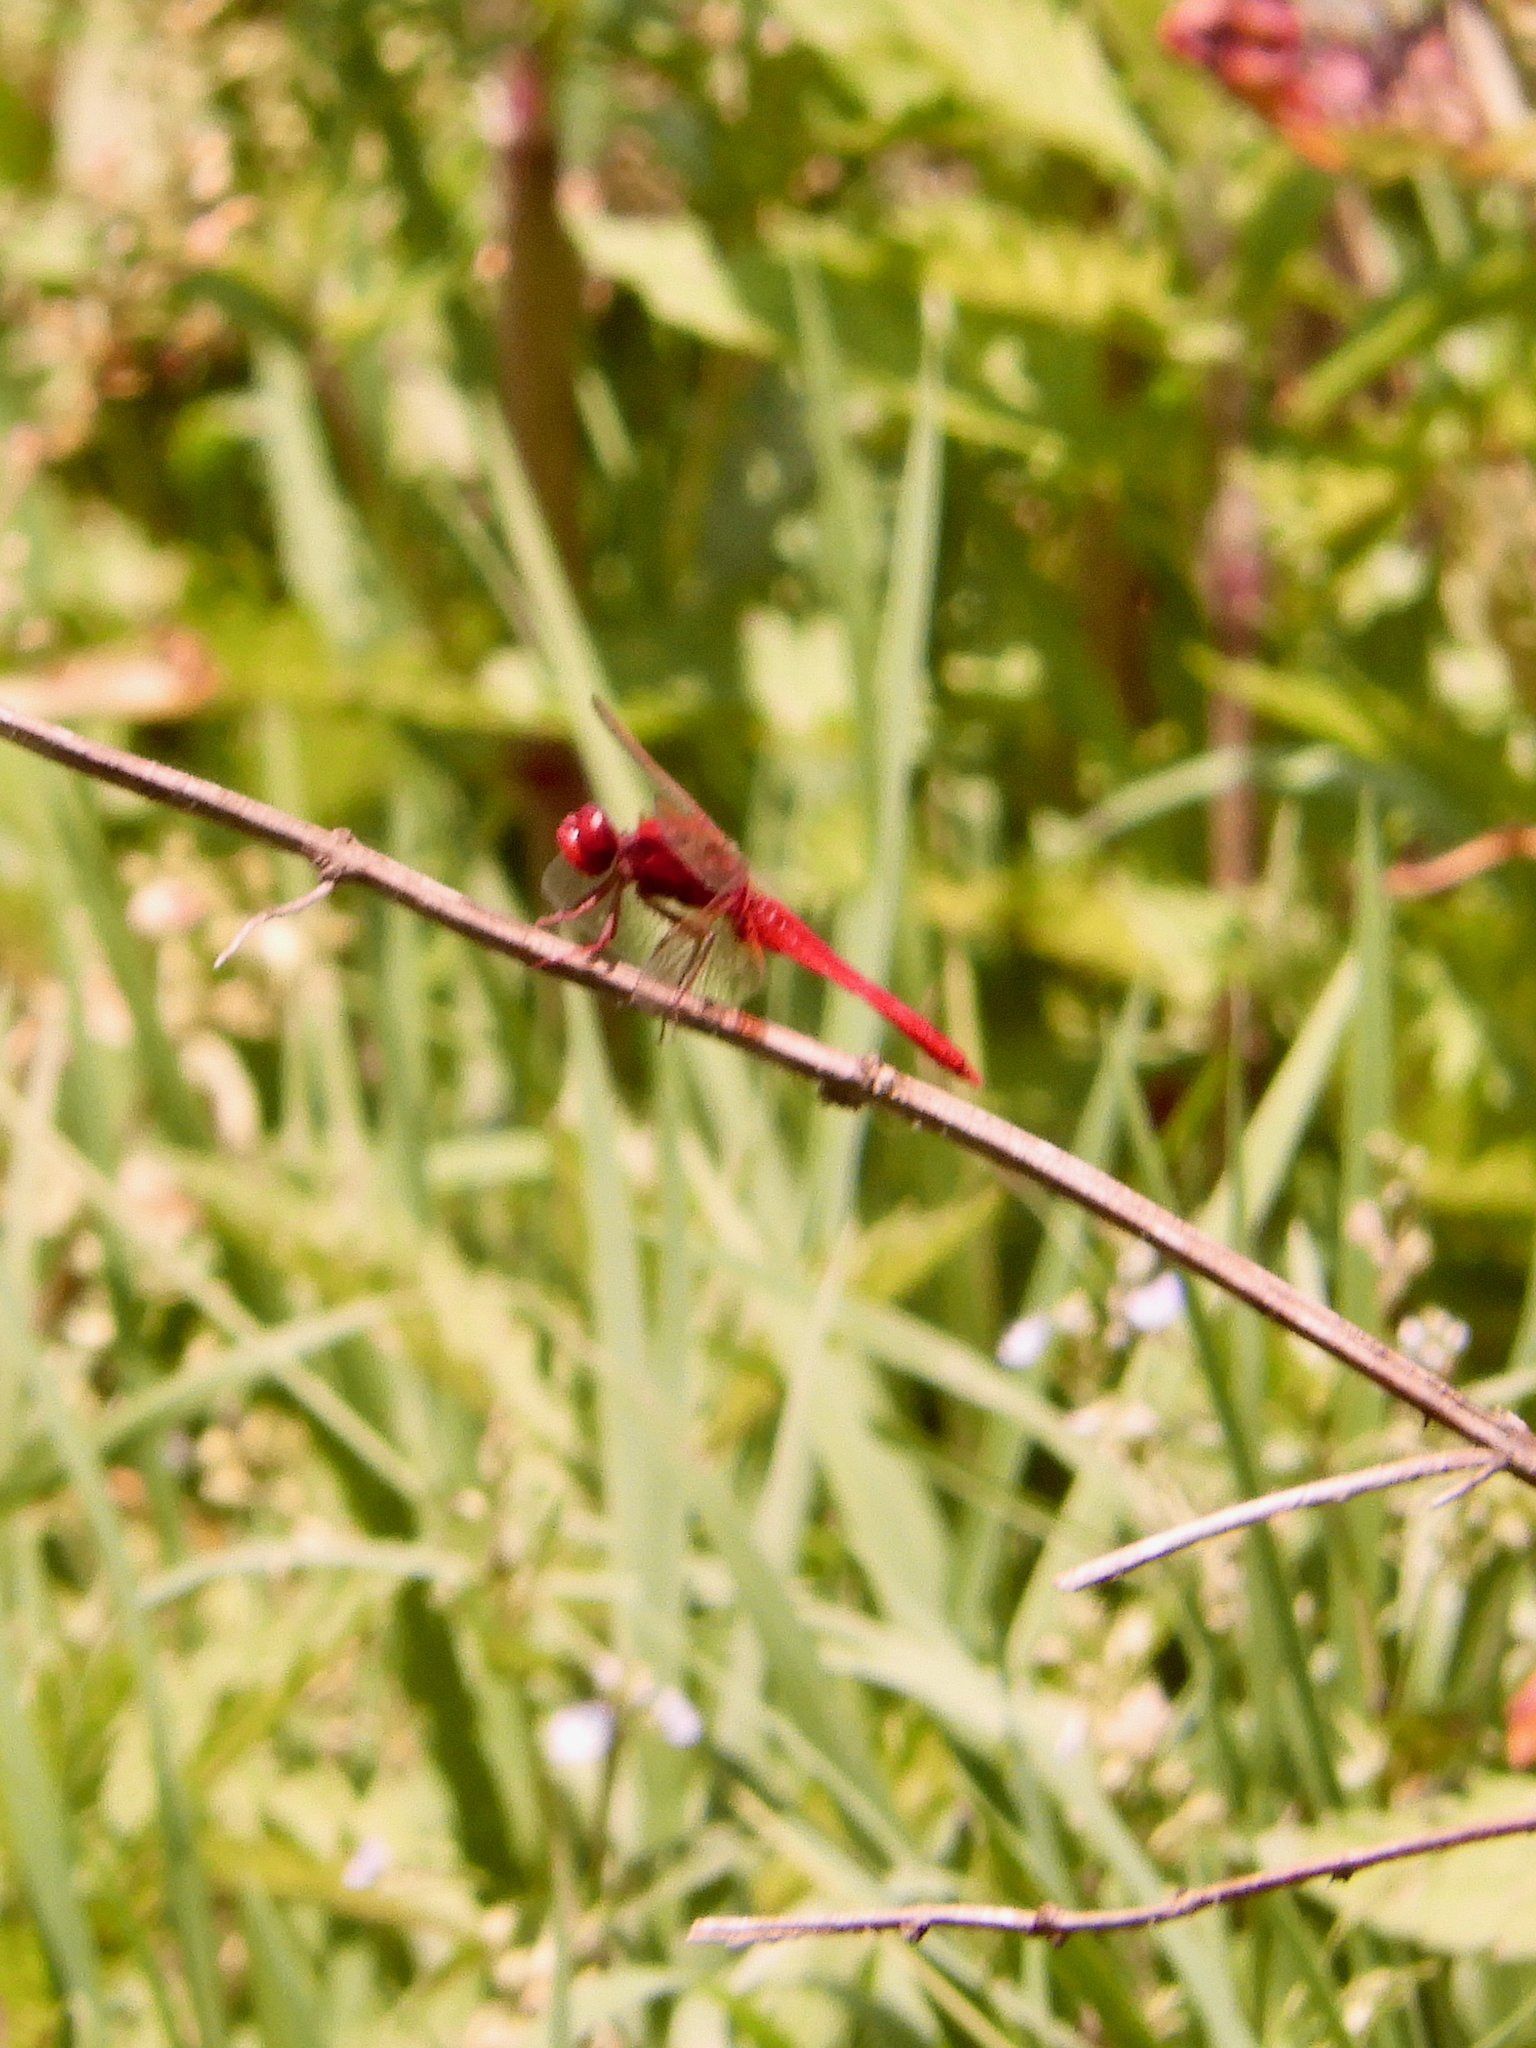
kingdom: Animalia
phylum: Arthropoda
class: Insecta
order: Odonata
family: Libellulidae
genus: Crocothemis
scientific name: Crocothemis erythraea
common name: Scarlet dragonfly
